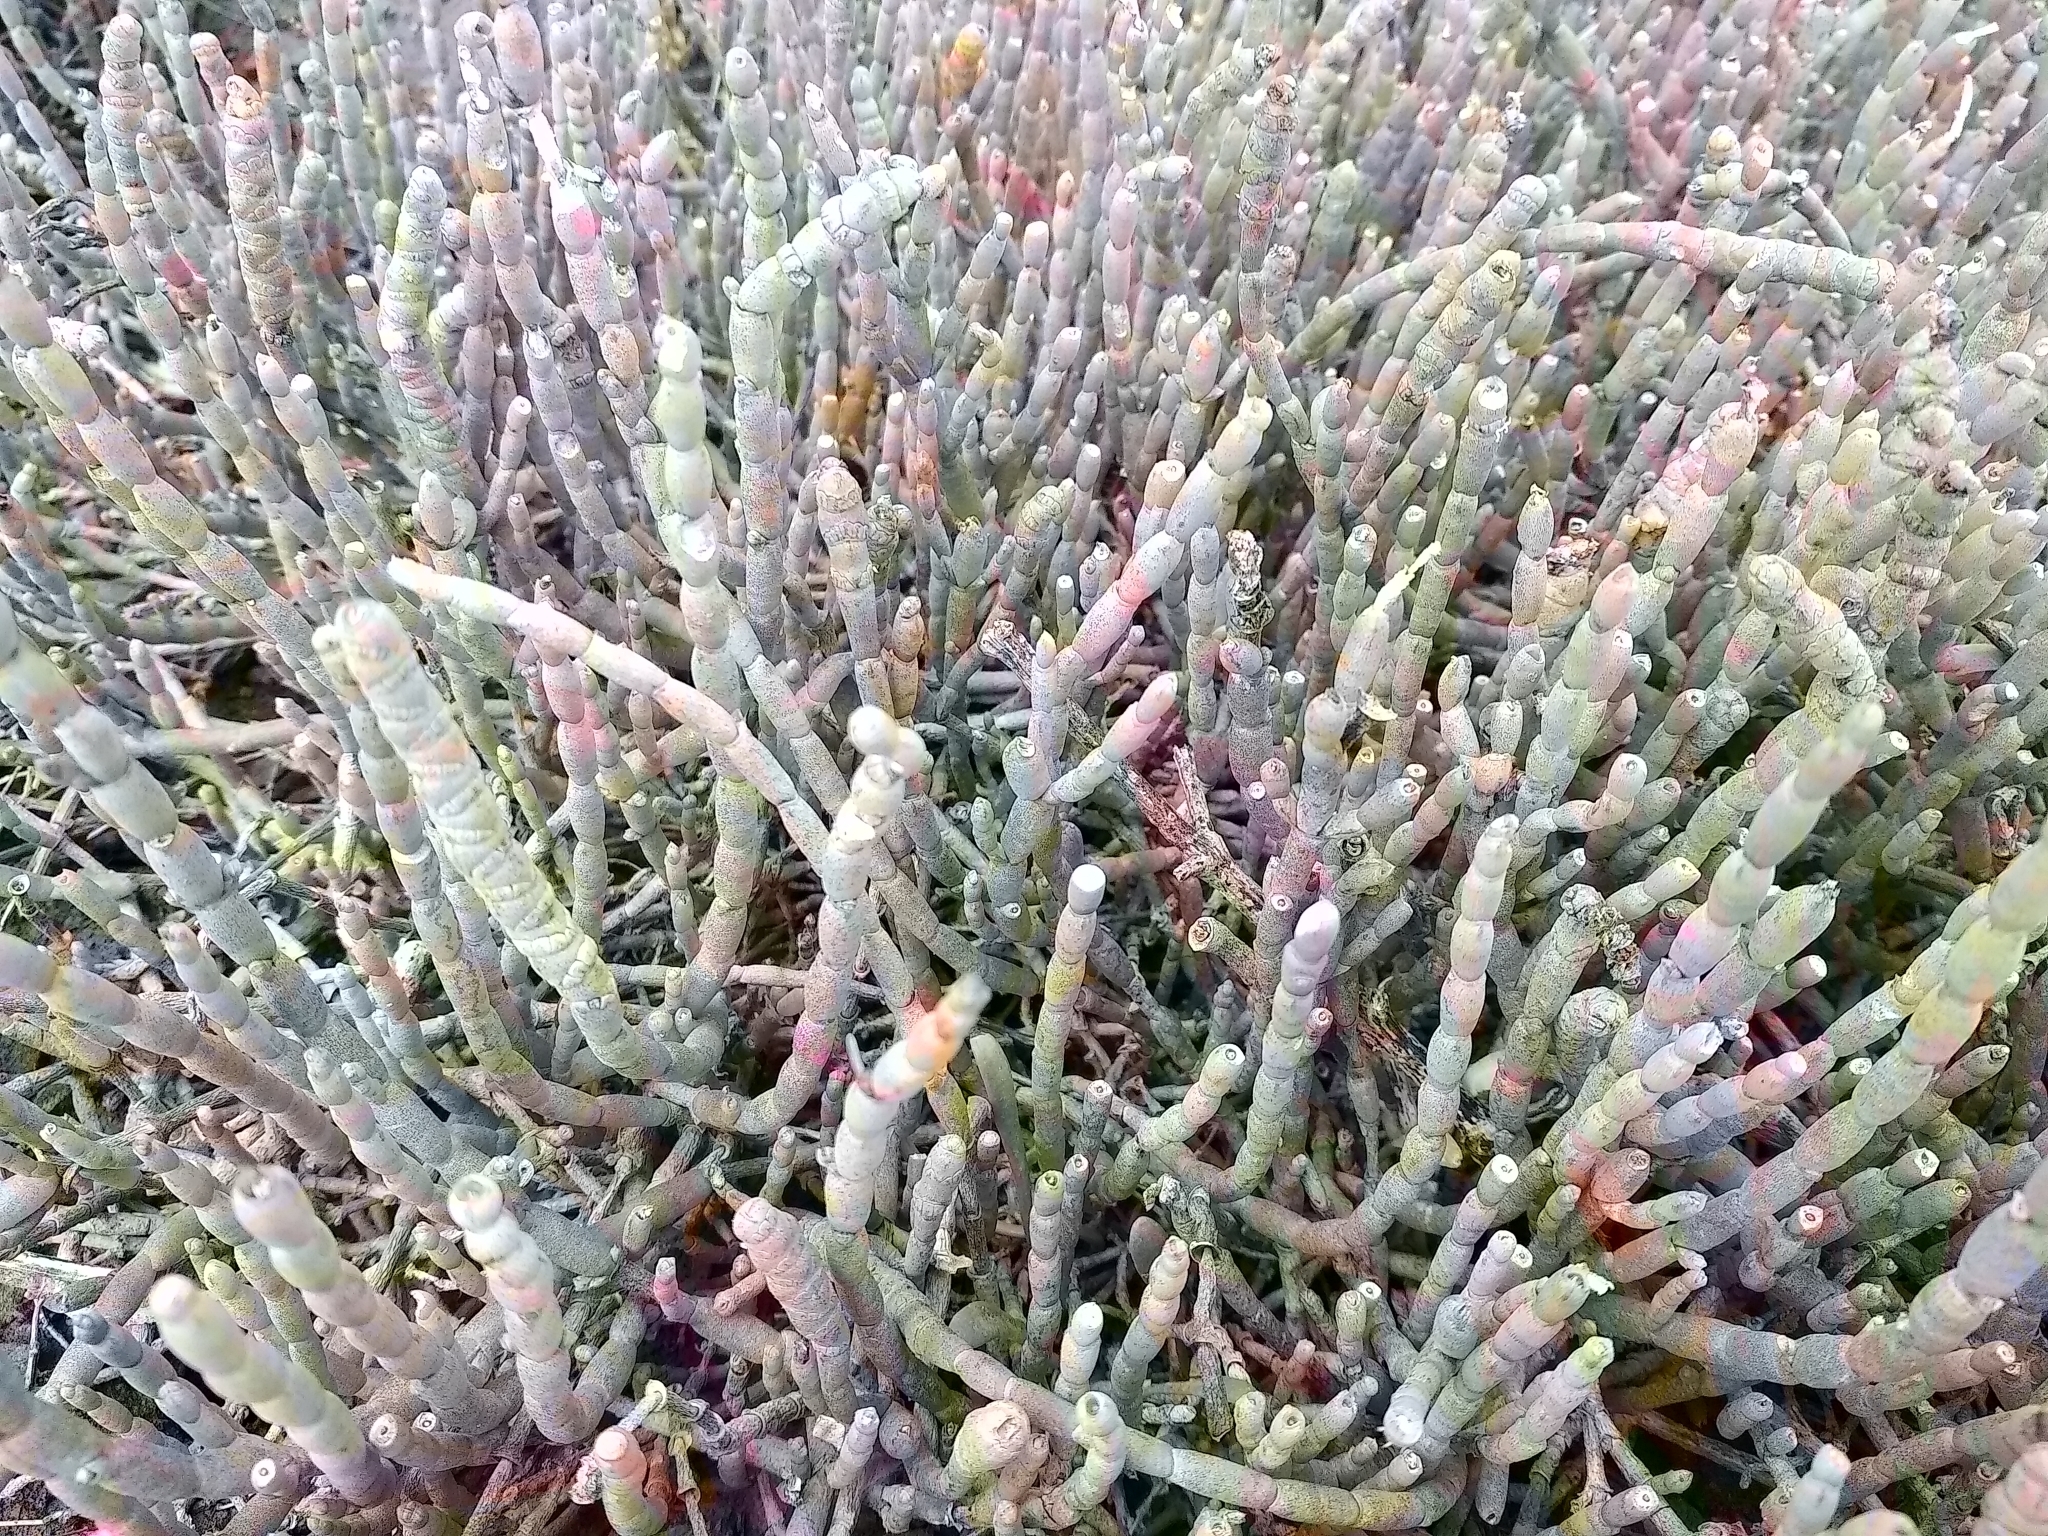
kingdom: Plantae
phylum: Tracheophyta
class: Magnoliopsida
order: Caryophyllales
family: Amaranthaceae
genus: Salicornia
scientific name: Salicornia quinqueflora
